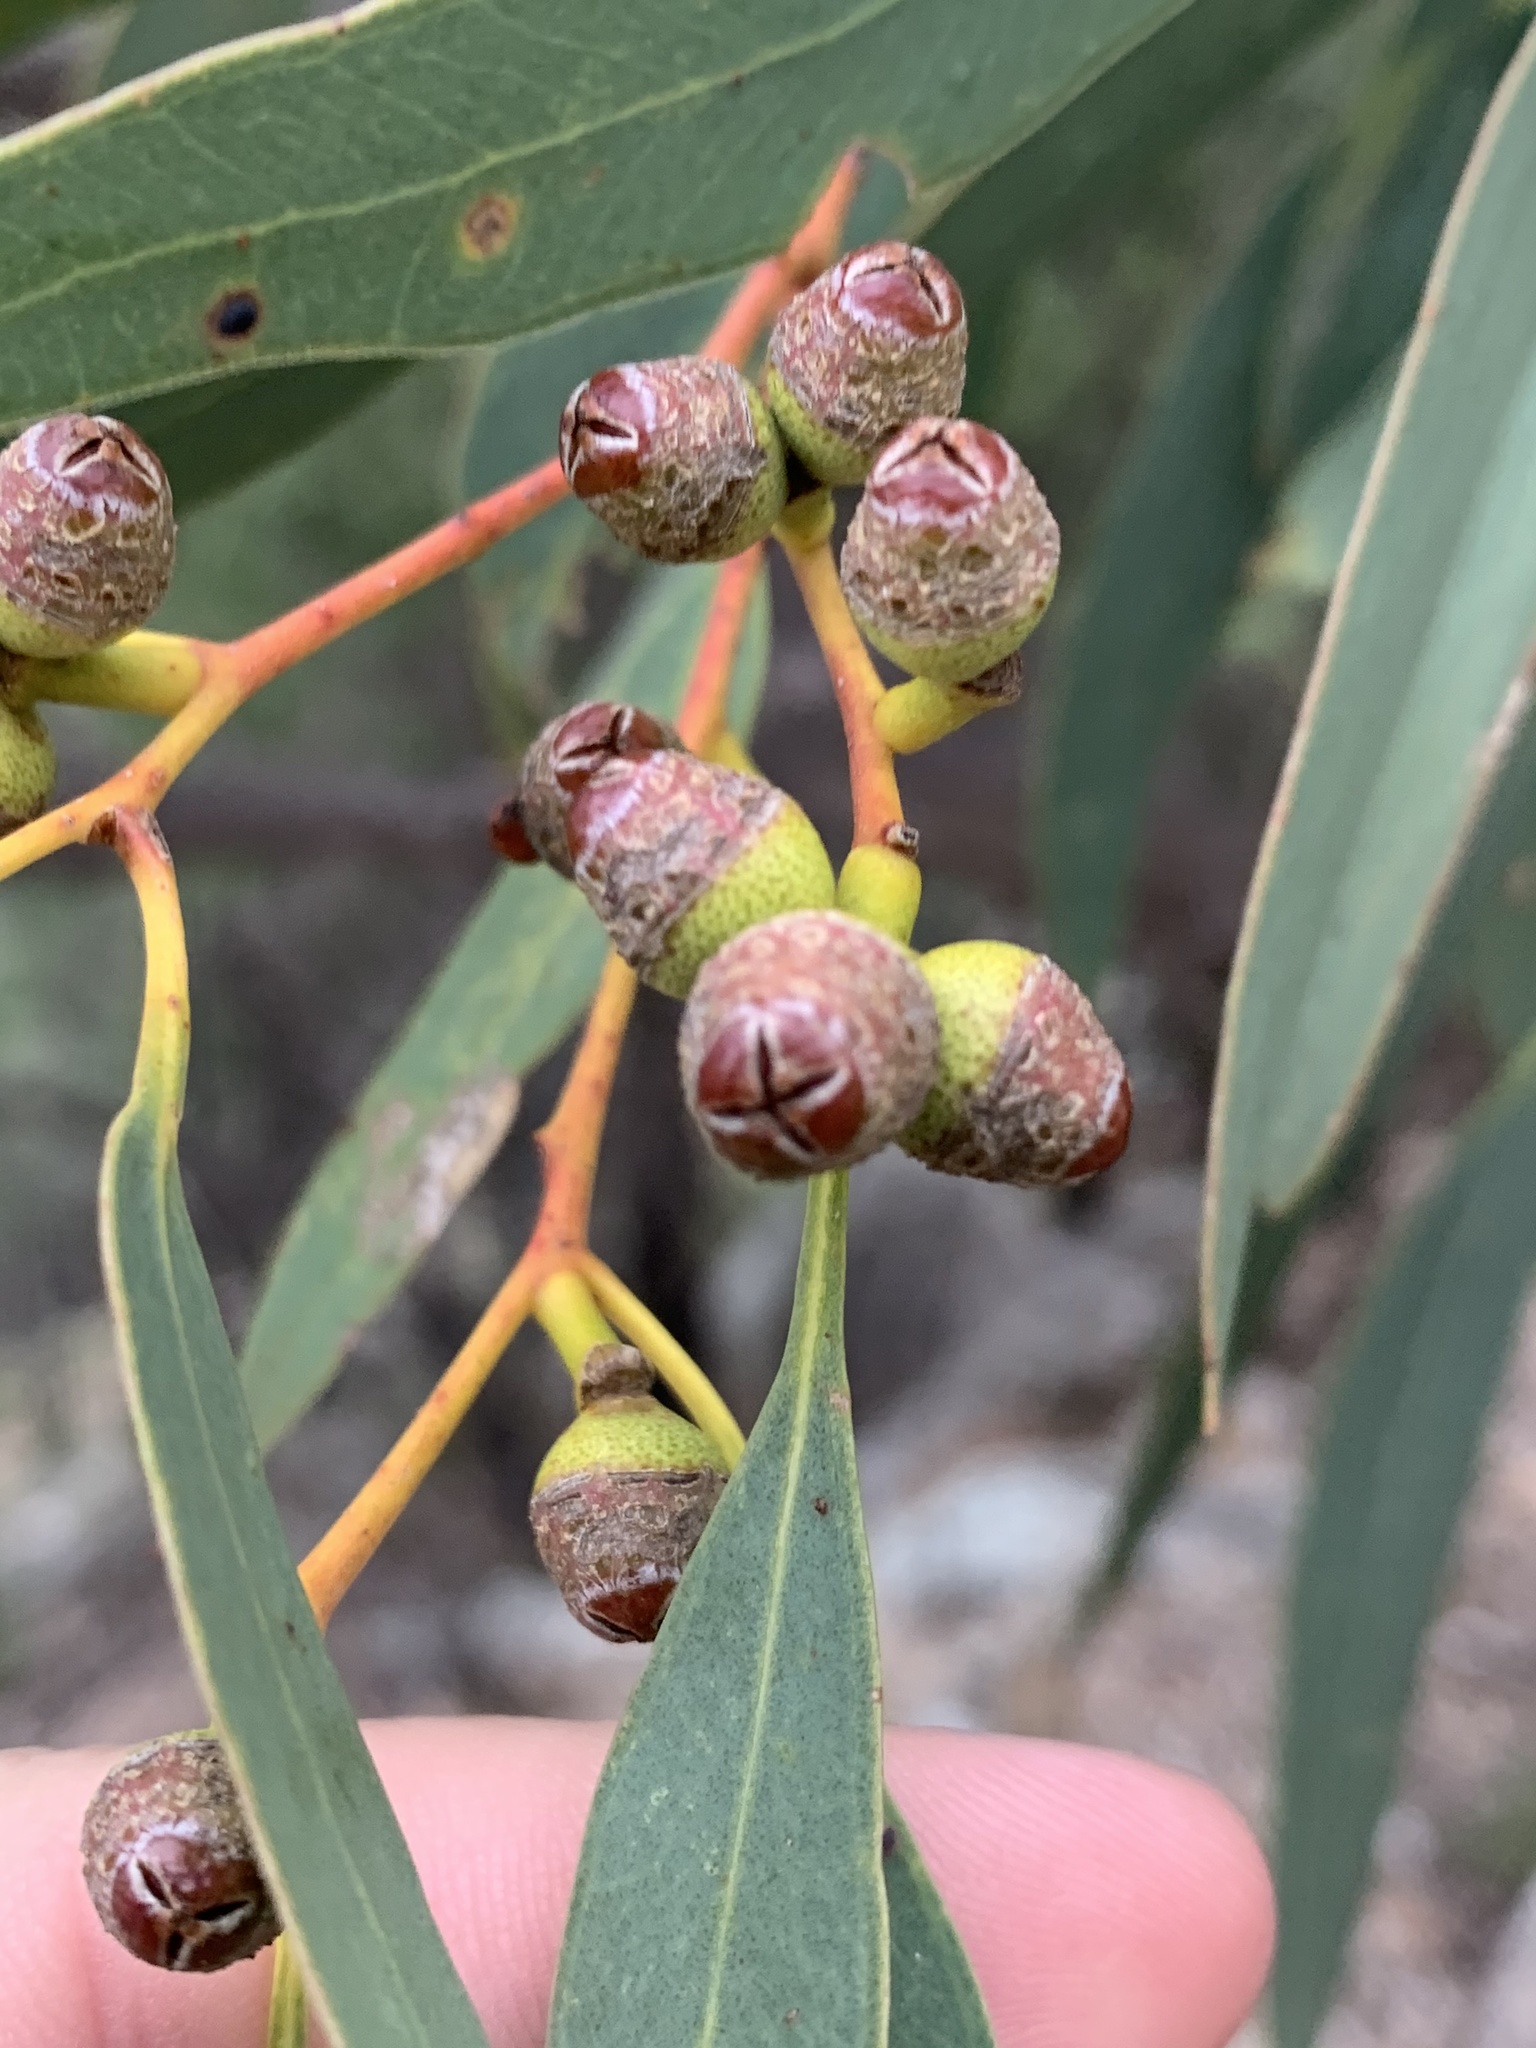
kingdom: Plantae
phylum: Tracheophyta
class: Magnoliopsida
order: Myrtales
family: Myrtaceae
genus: Eucalyptus
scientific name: Eucalyptus morrisii
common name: Grey mallee
